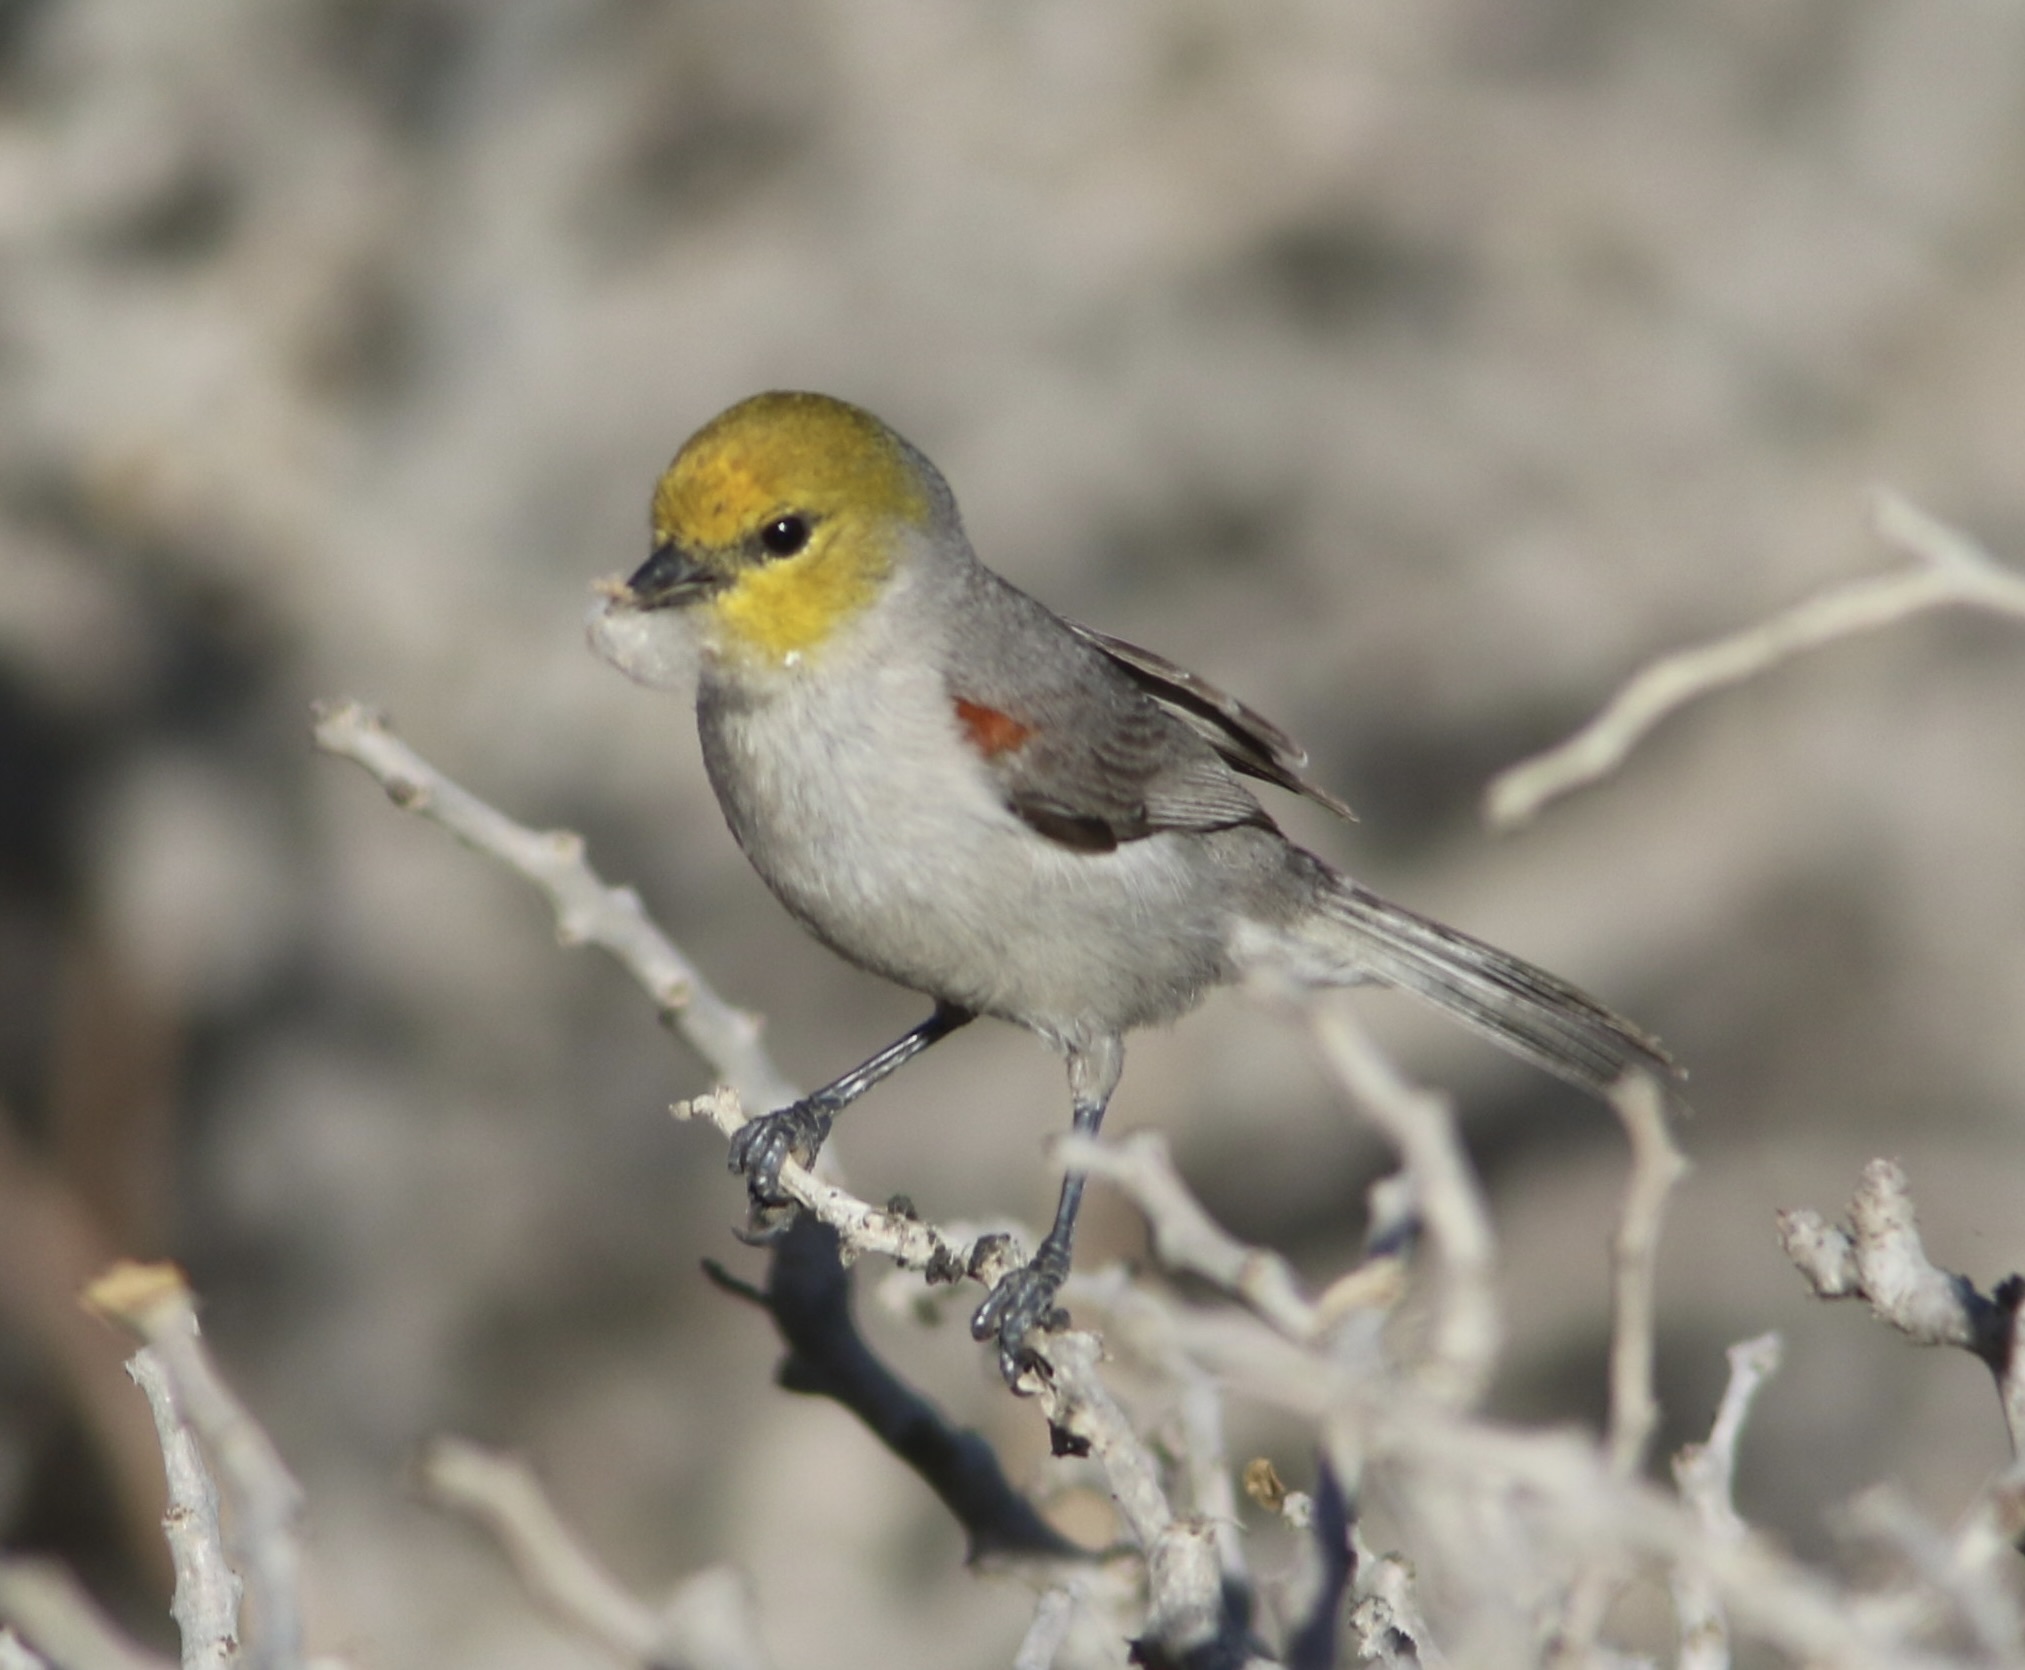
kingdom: Animalia
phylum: Chordata
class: Aves
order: Passeriformes
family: Remizidae
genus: Auriparus
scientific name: Auriparus flaviceps
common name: Verdin
